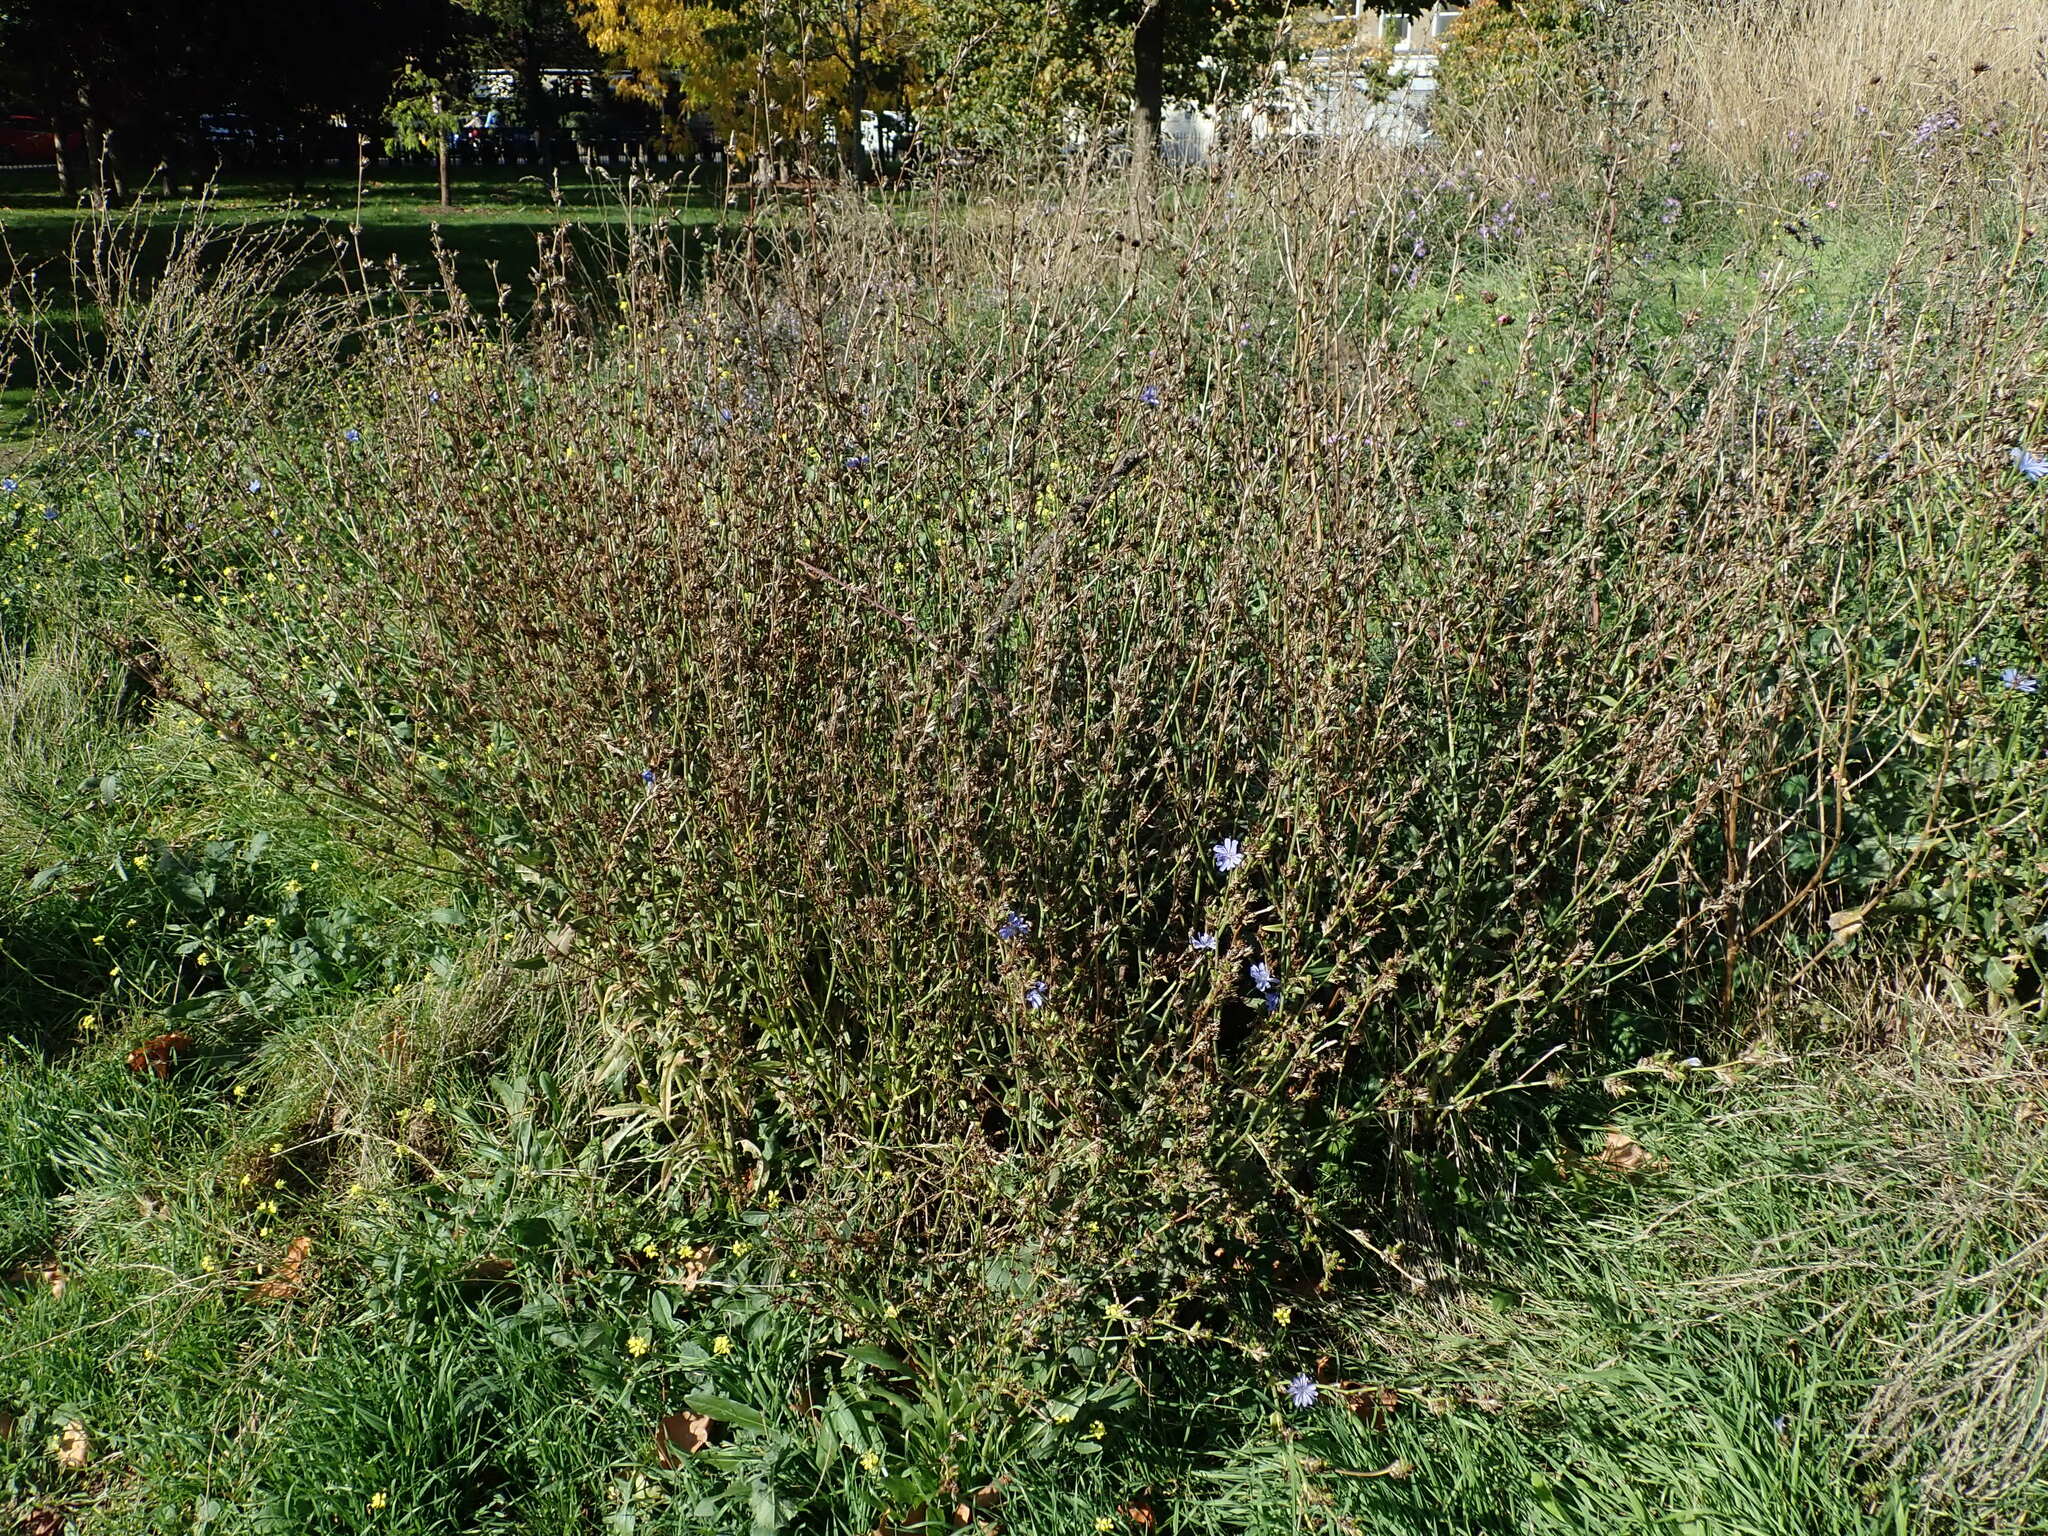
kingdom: Plantae
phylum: Tracheophyta
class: Magnoliopsida
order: Asterales
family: Asteraceae
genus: Cichorium
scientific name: Cichorium intybus
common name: Chicory
